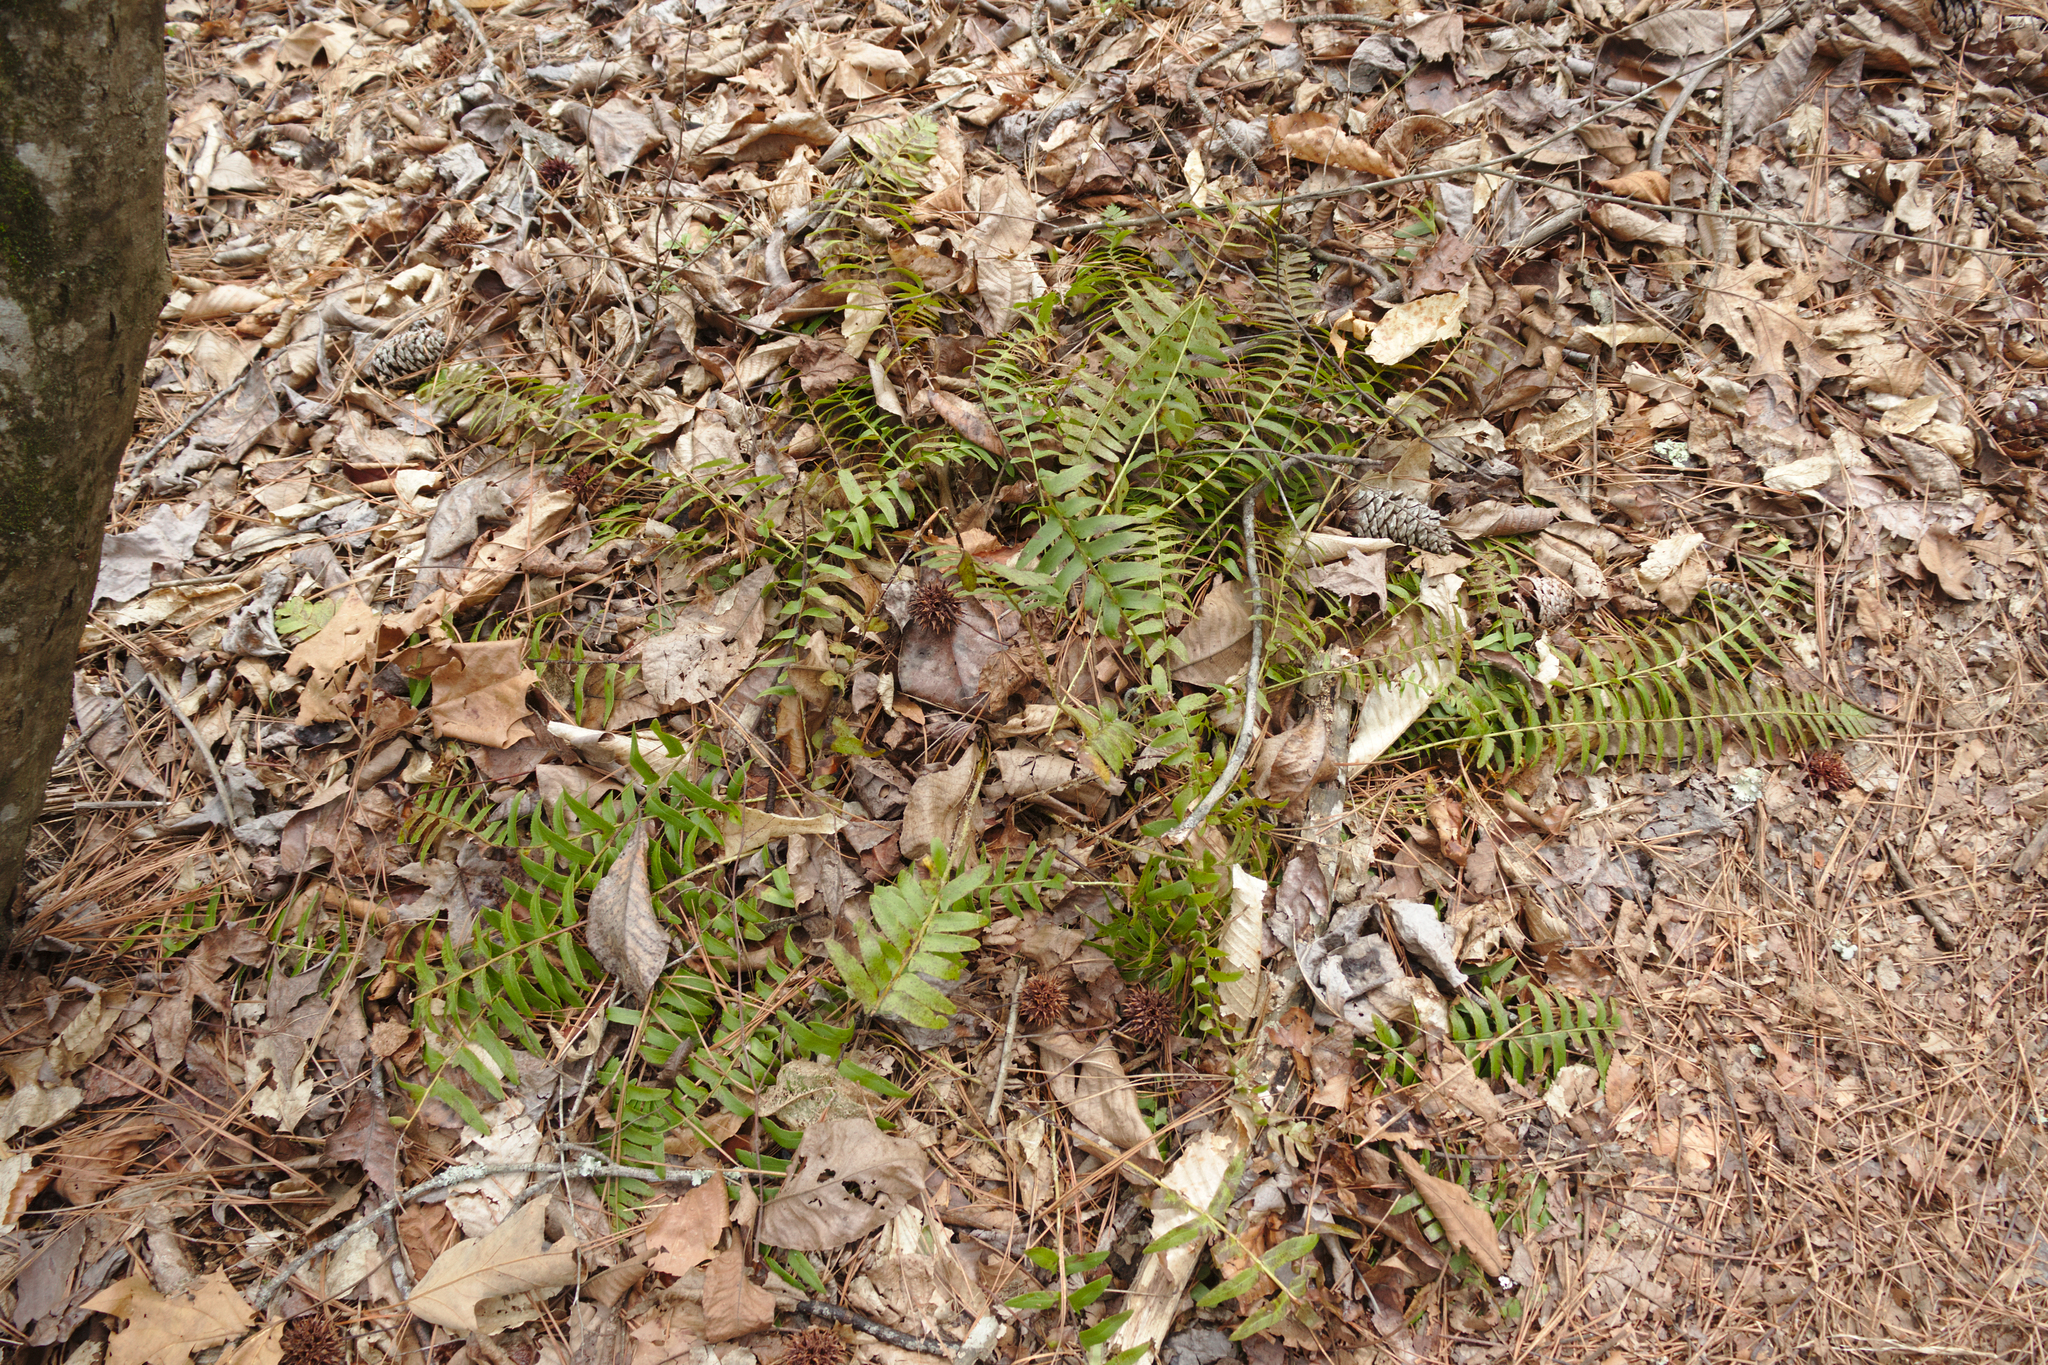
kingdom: Plantae
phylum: Tracheophyta
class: Polypodiopsida
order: Polypodiales
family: Dryopteridaceae
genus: Polystichum
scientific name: Polystichum acrostichoides
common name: Christmas fern
